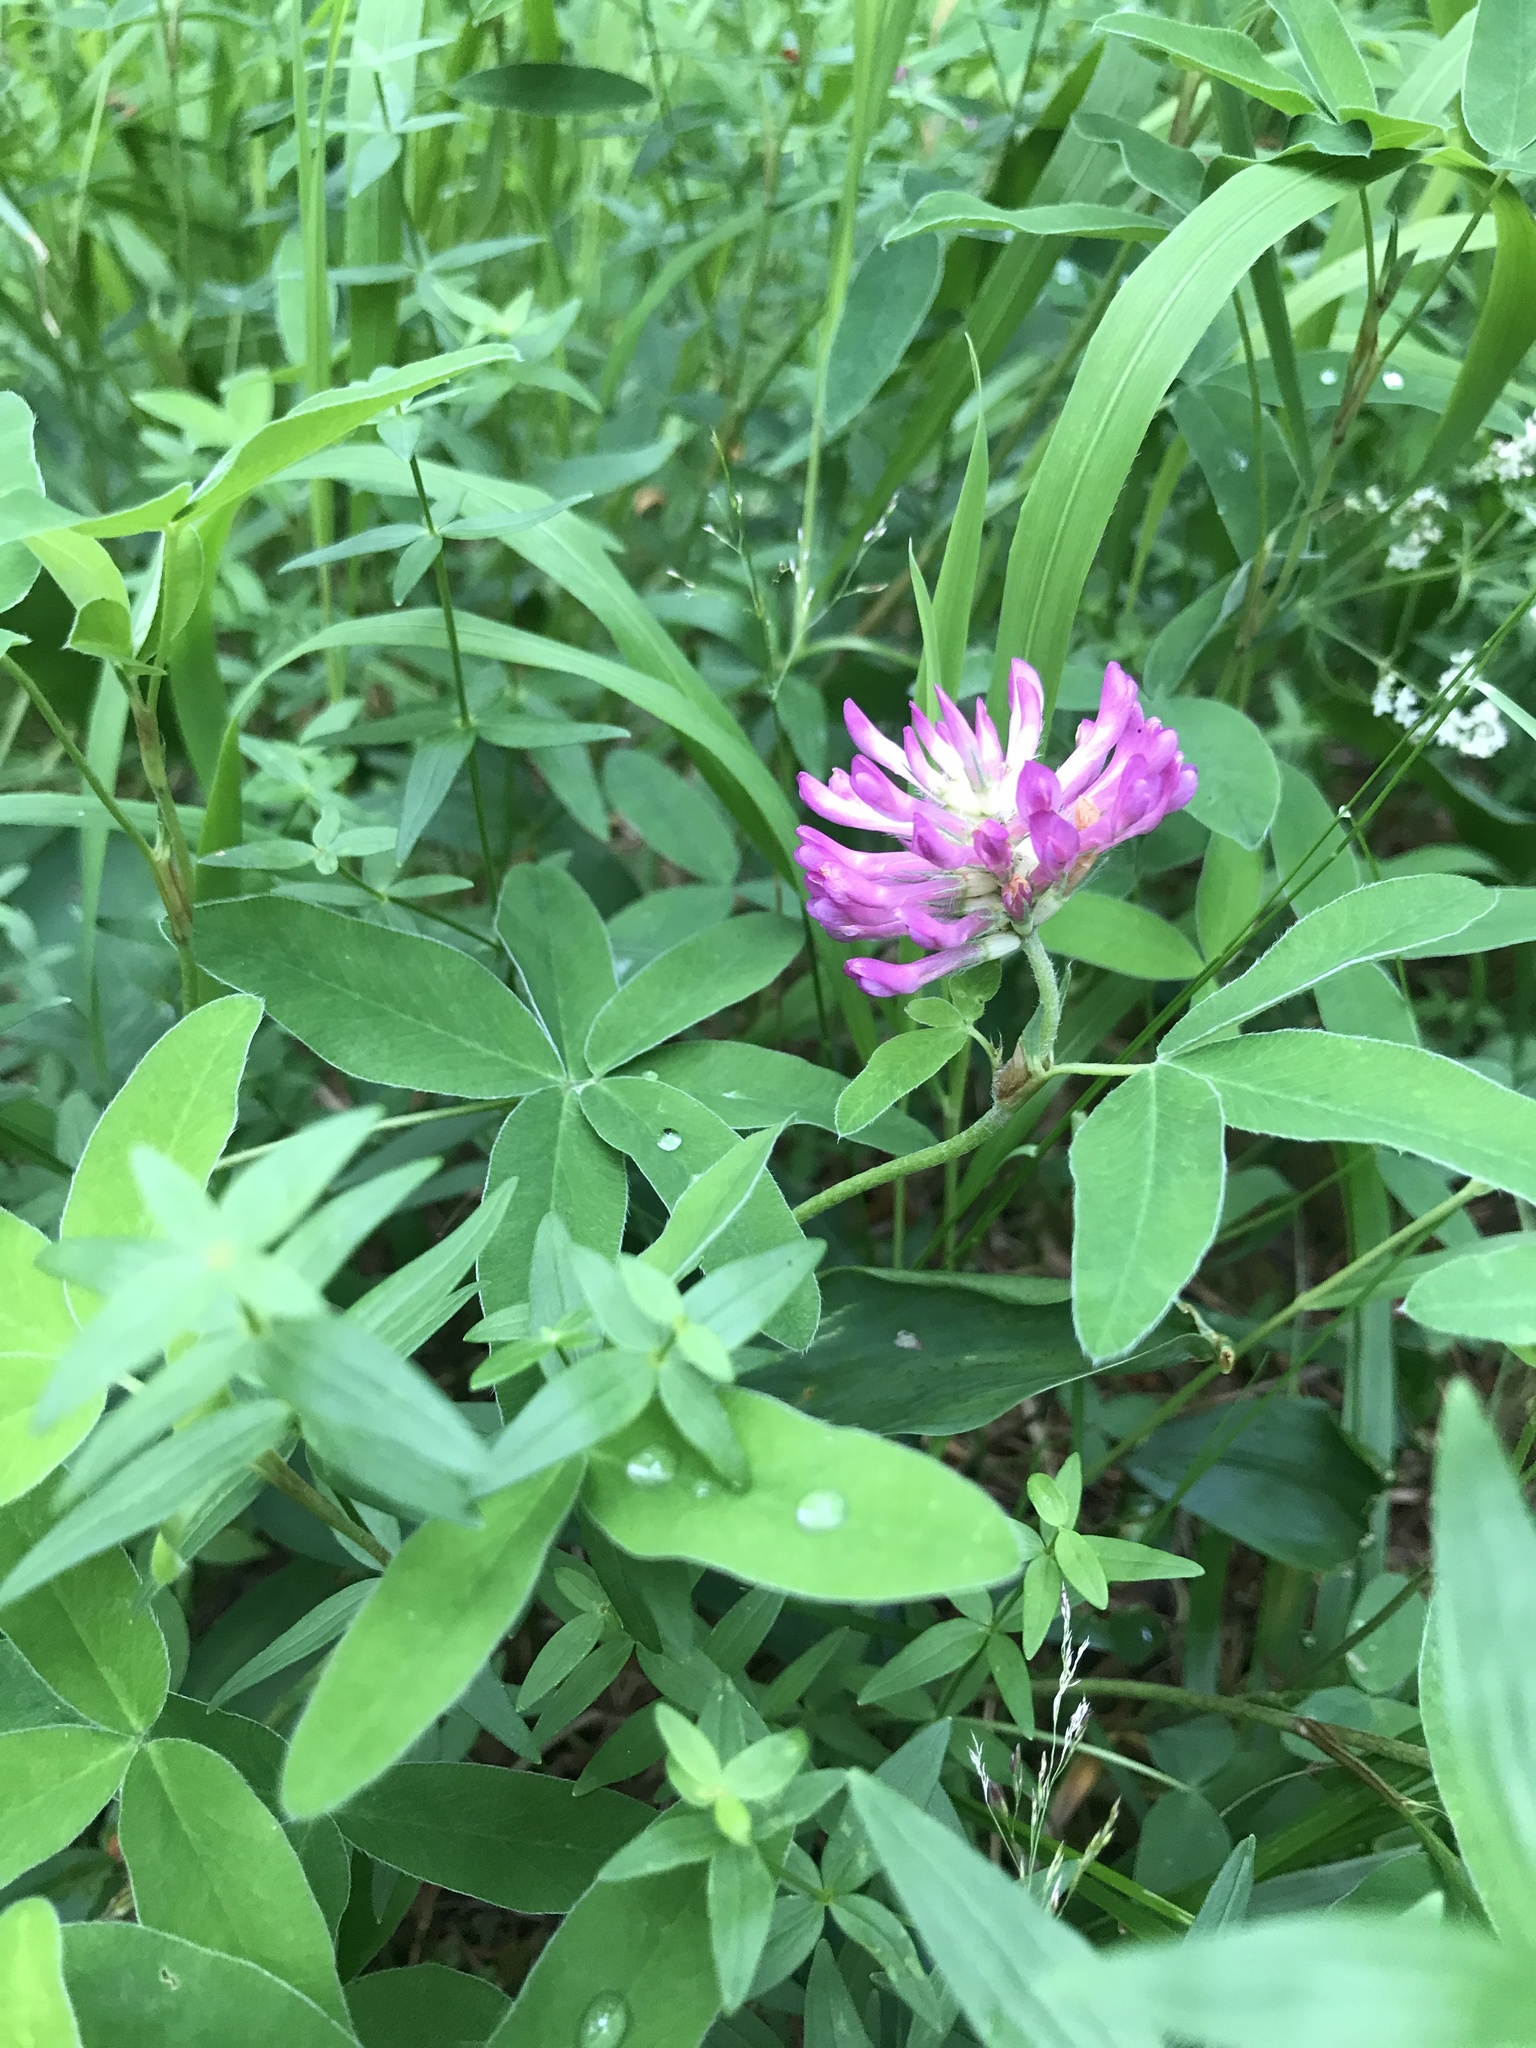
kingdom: Plantae
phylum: Tracheophyta
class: Magnoliopsida
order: Fabales
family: Fabaceae
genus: Trifolium
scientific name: Trifolium medium
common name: Zigzag clover
